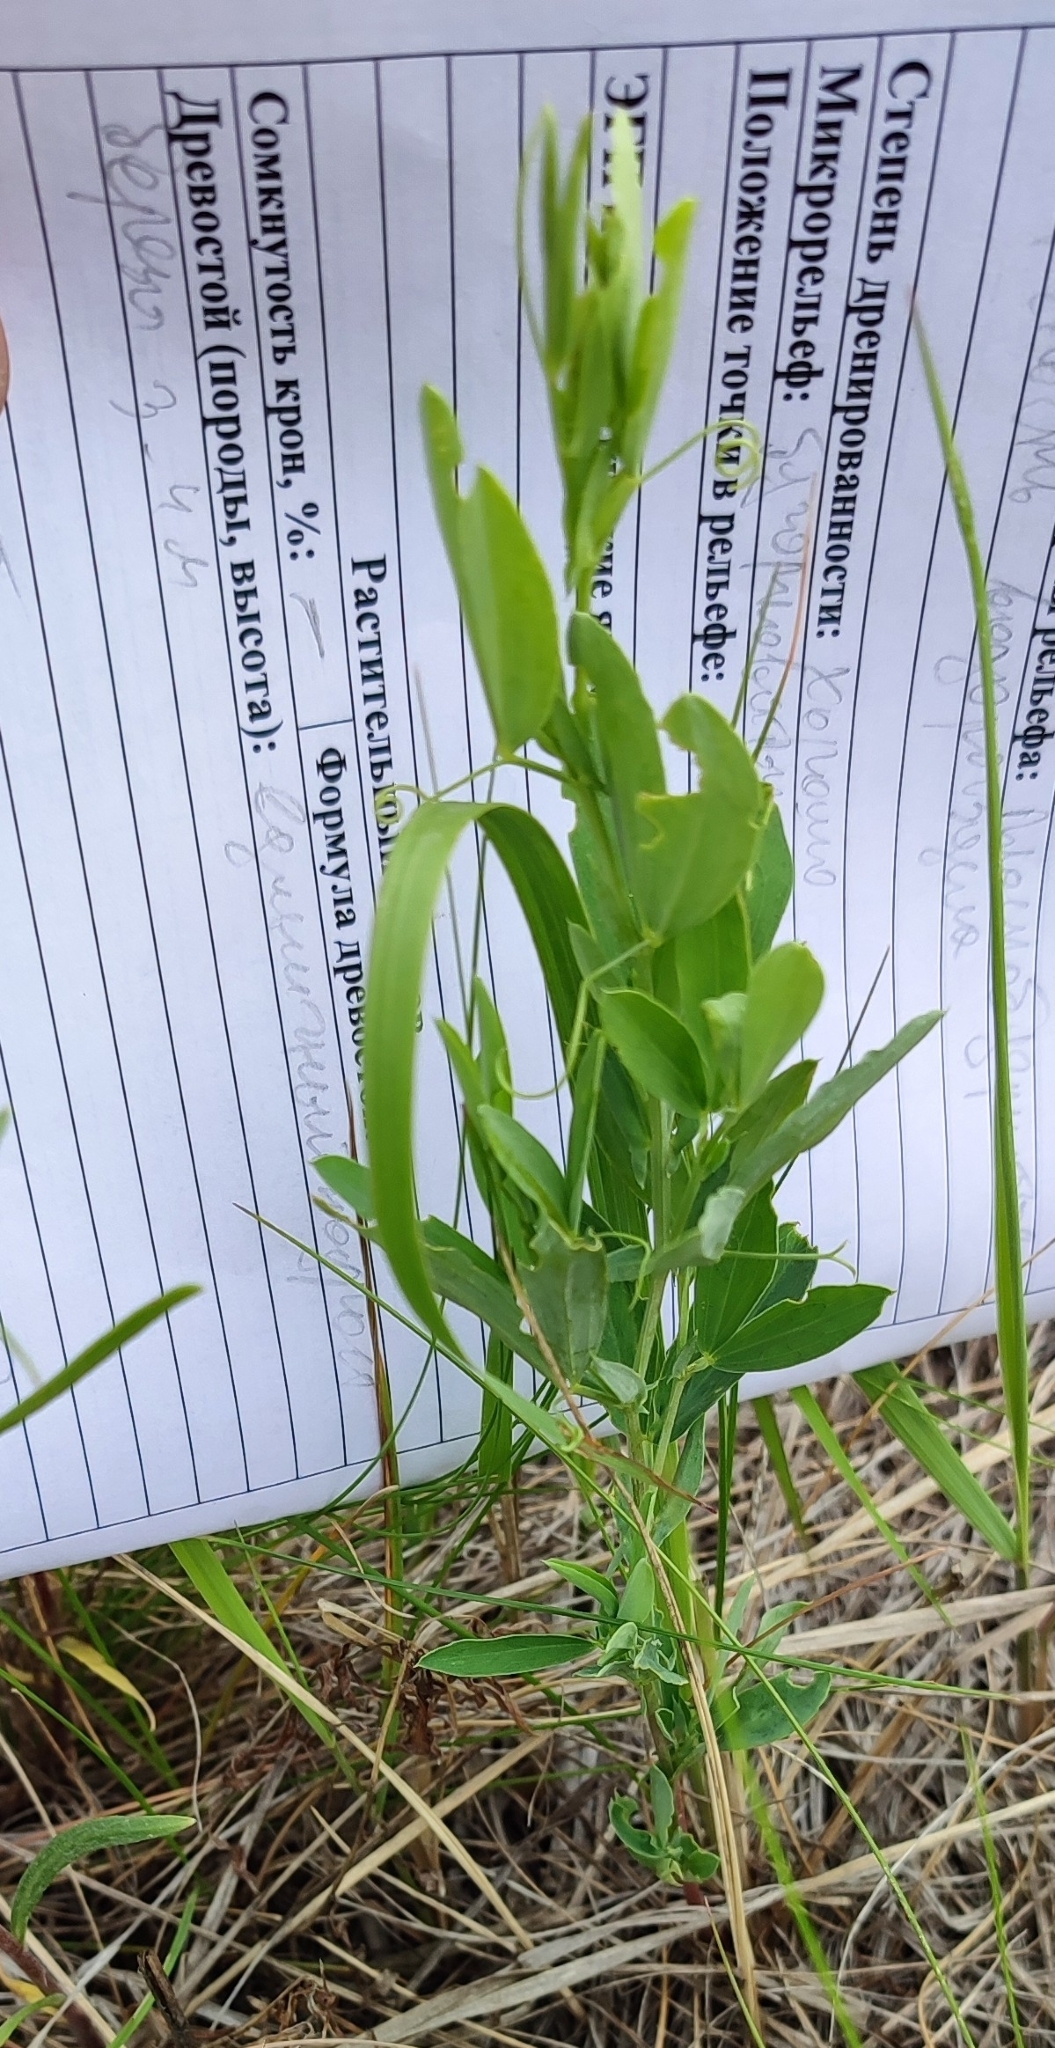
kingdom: Plantae
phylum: Tracheophyta
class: Magnoliopsida
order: Fabales
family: Fabaceae
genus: Lathyrus
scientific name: Lathyrus tuberosus
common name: Tuberous pea
